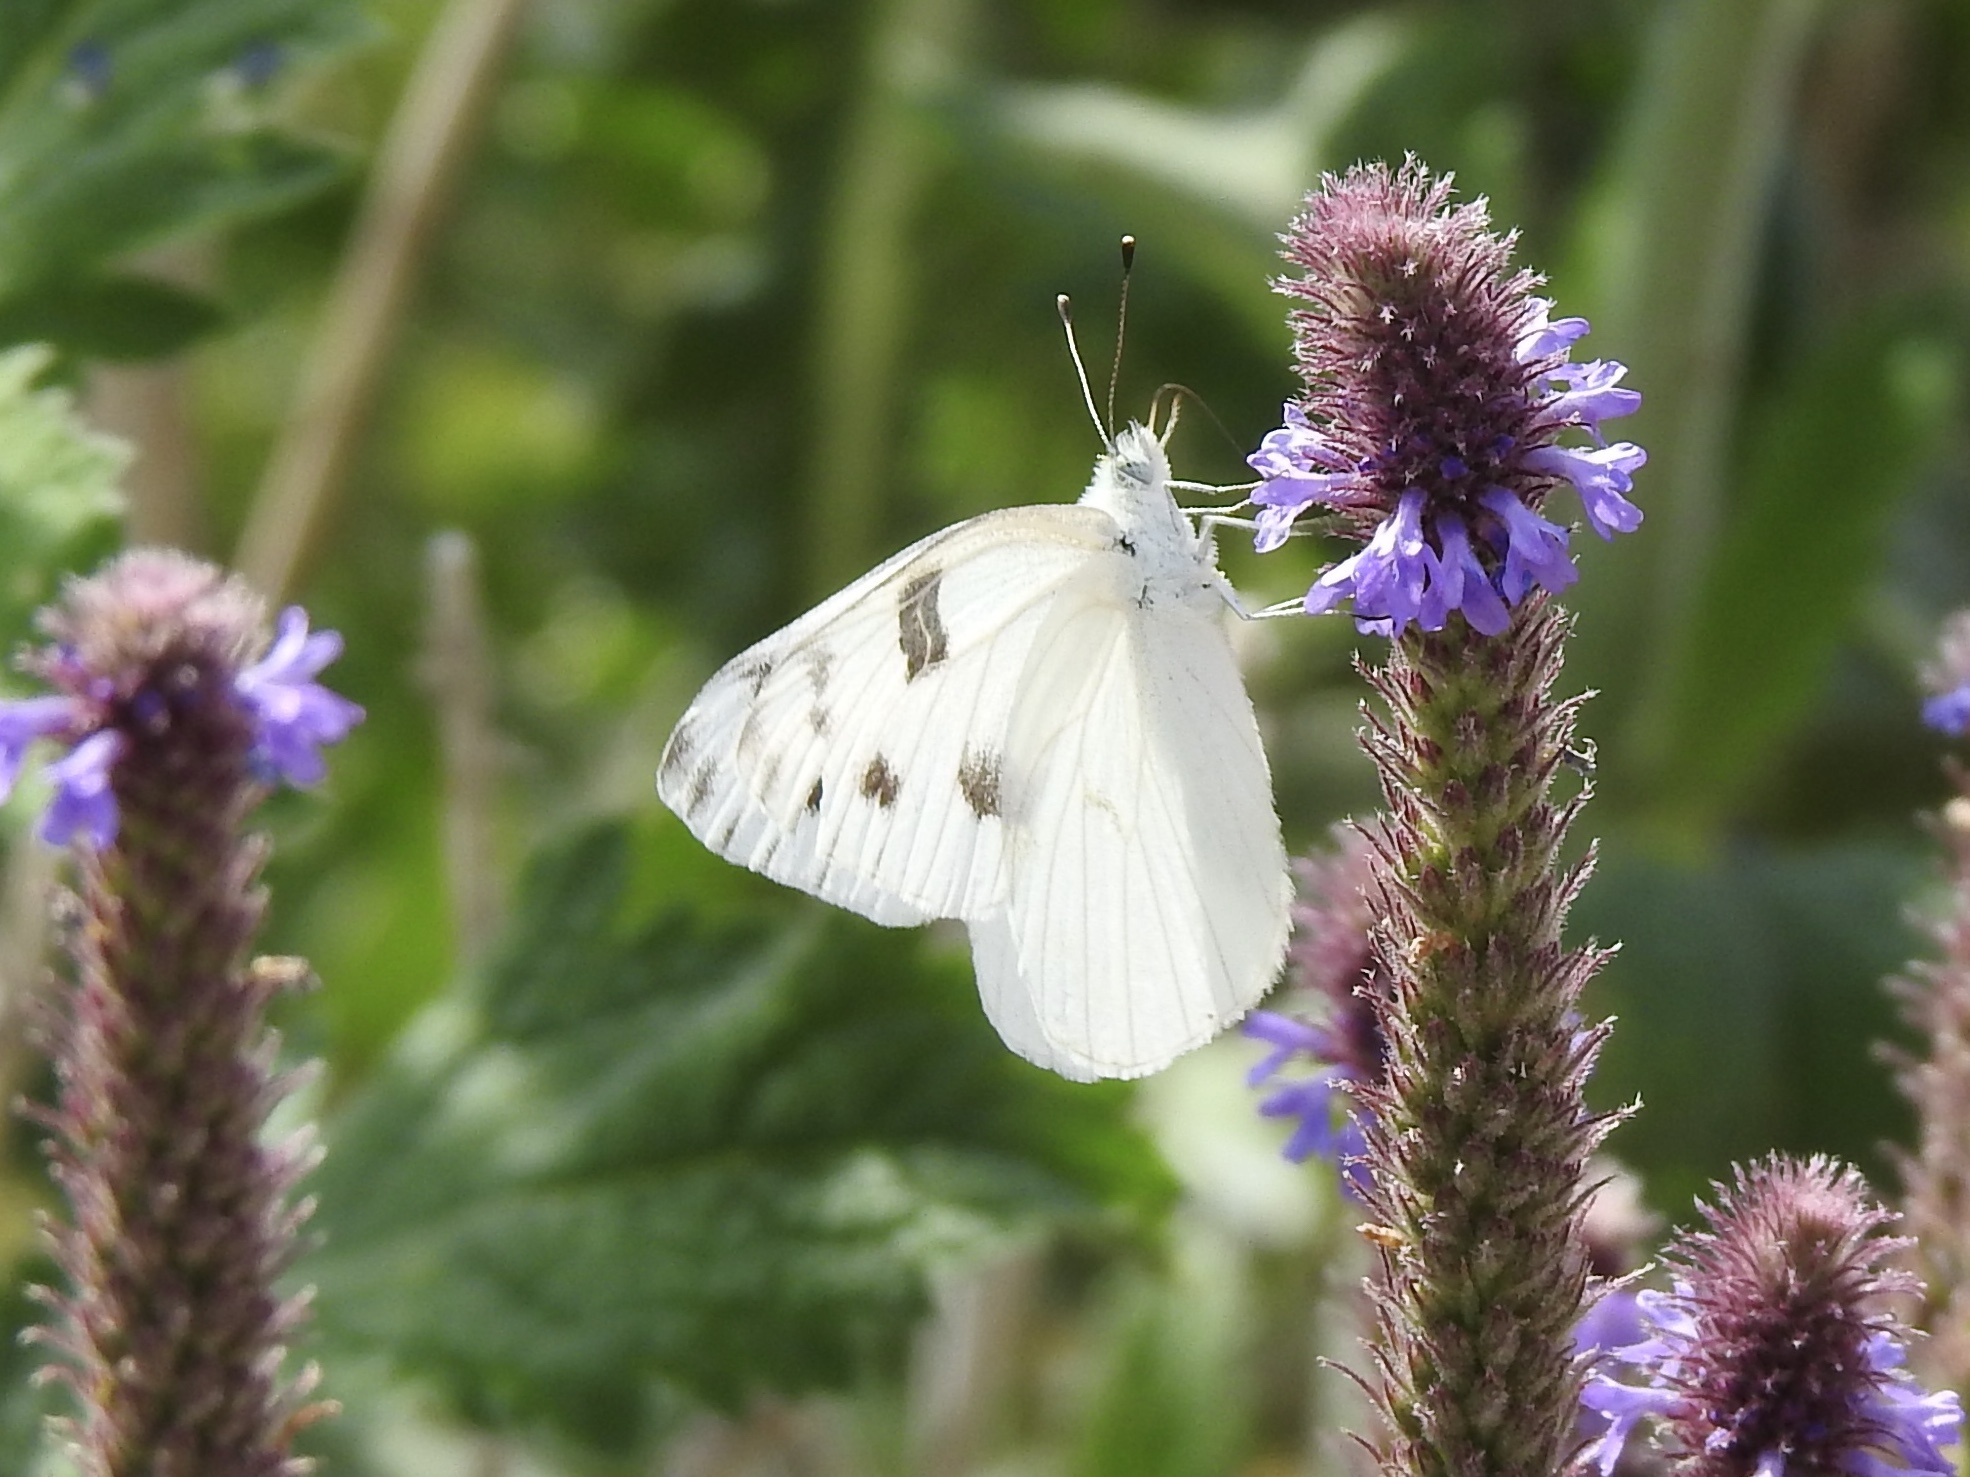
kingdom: Animalia
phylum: Arthropoda
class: Insecta
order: Lepidoptera
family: Pieridae
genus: Pontia
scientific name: Pontia protodice
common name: Checkered white
